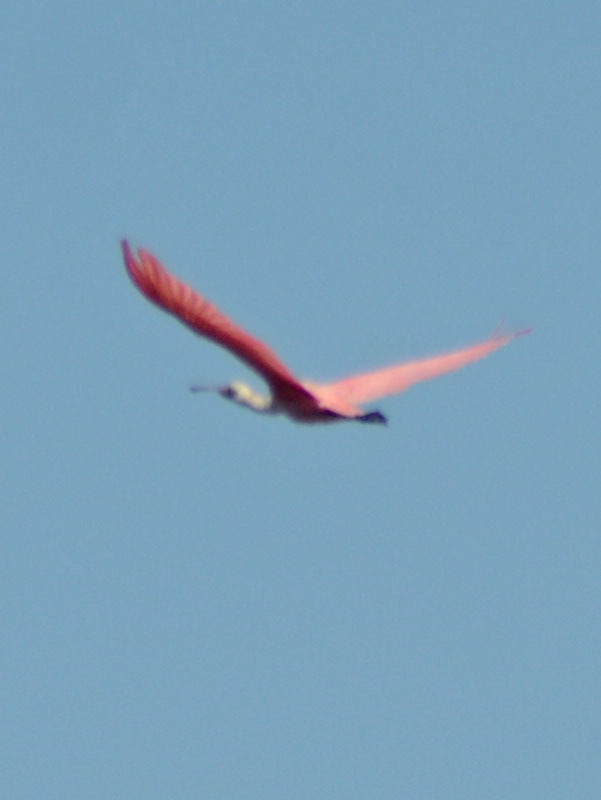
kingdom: Animalia
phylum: Chordata
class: Aves
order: Pelecaniformes
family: Threskiornithidae
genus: Platalea
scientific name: Platalea ajaja
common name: Roseate spoonbill
